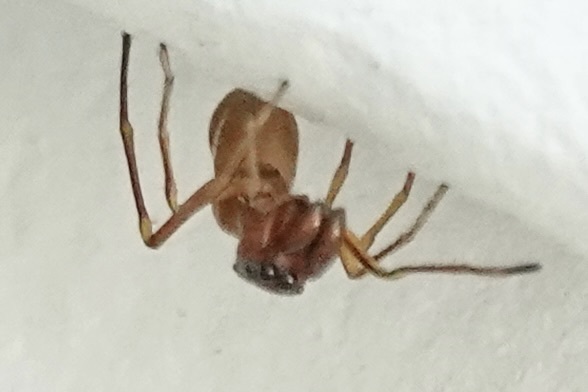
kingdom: Animalia
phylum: Arthropoda
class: Arachnida
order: Araneae
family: Salticidae
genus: Sarinda
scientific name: Sarinda hentzi
